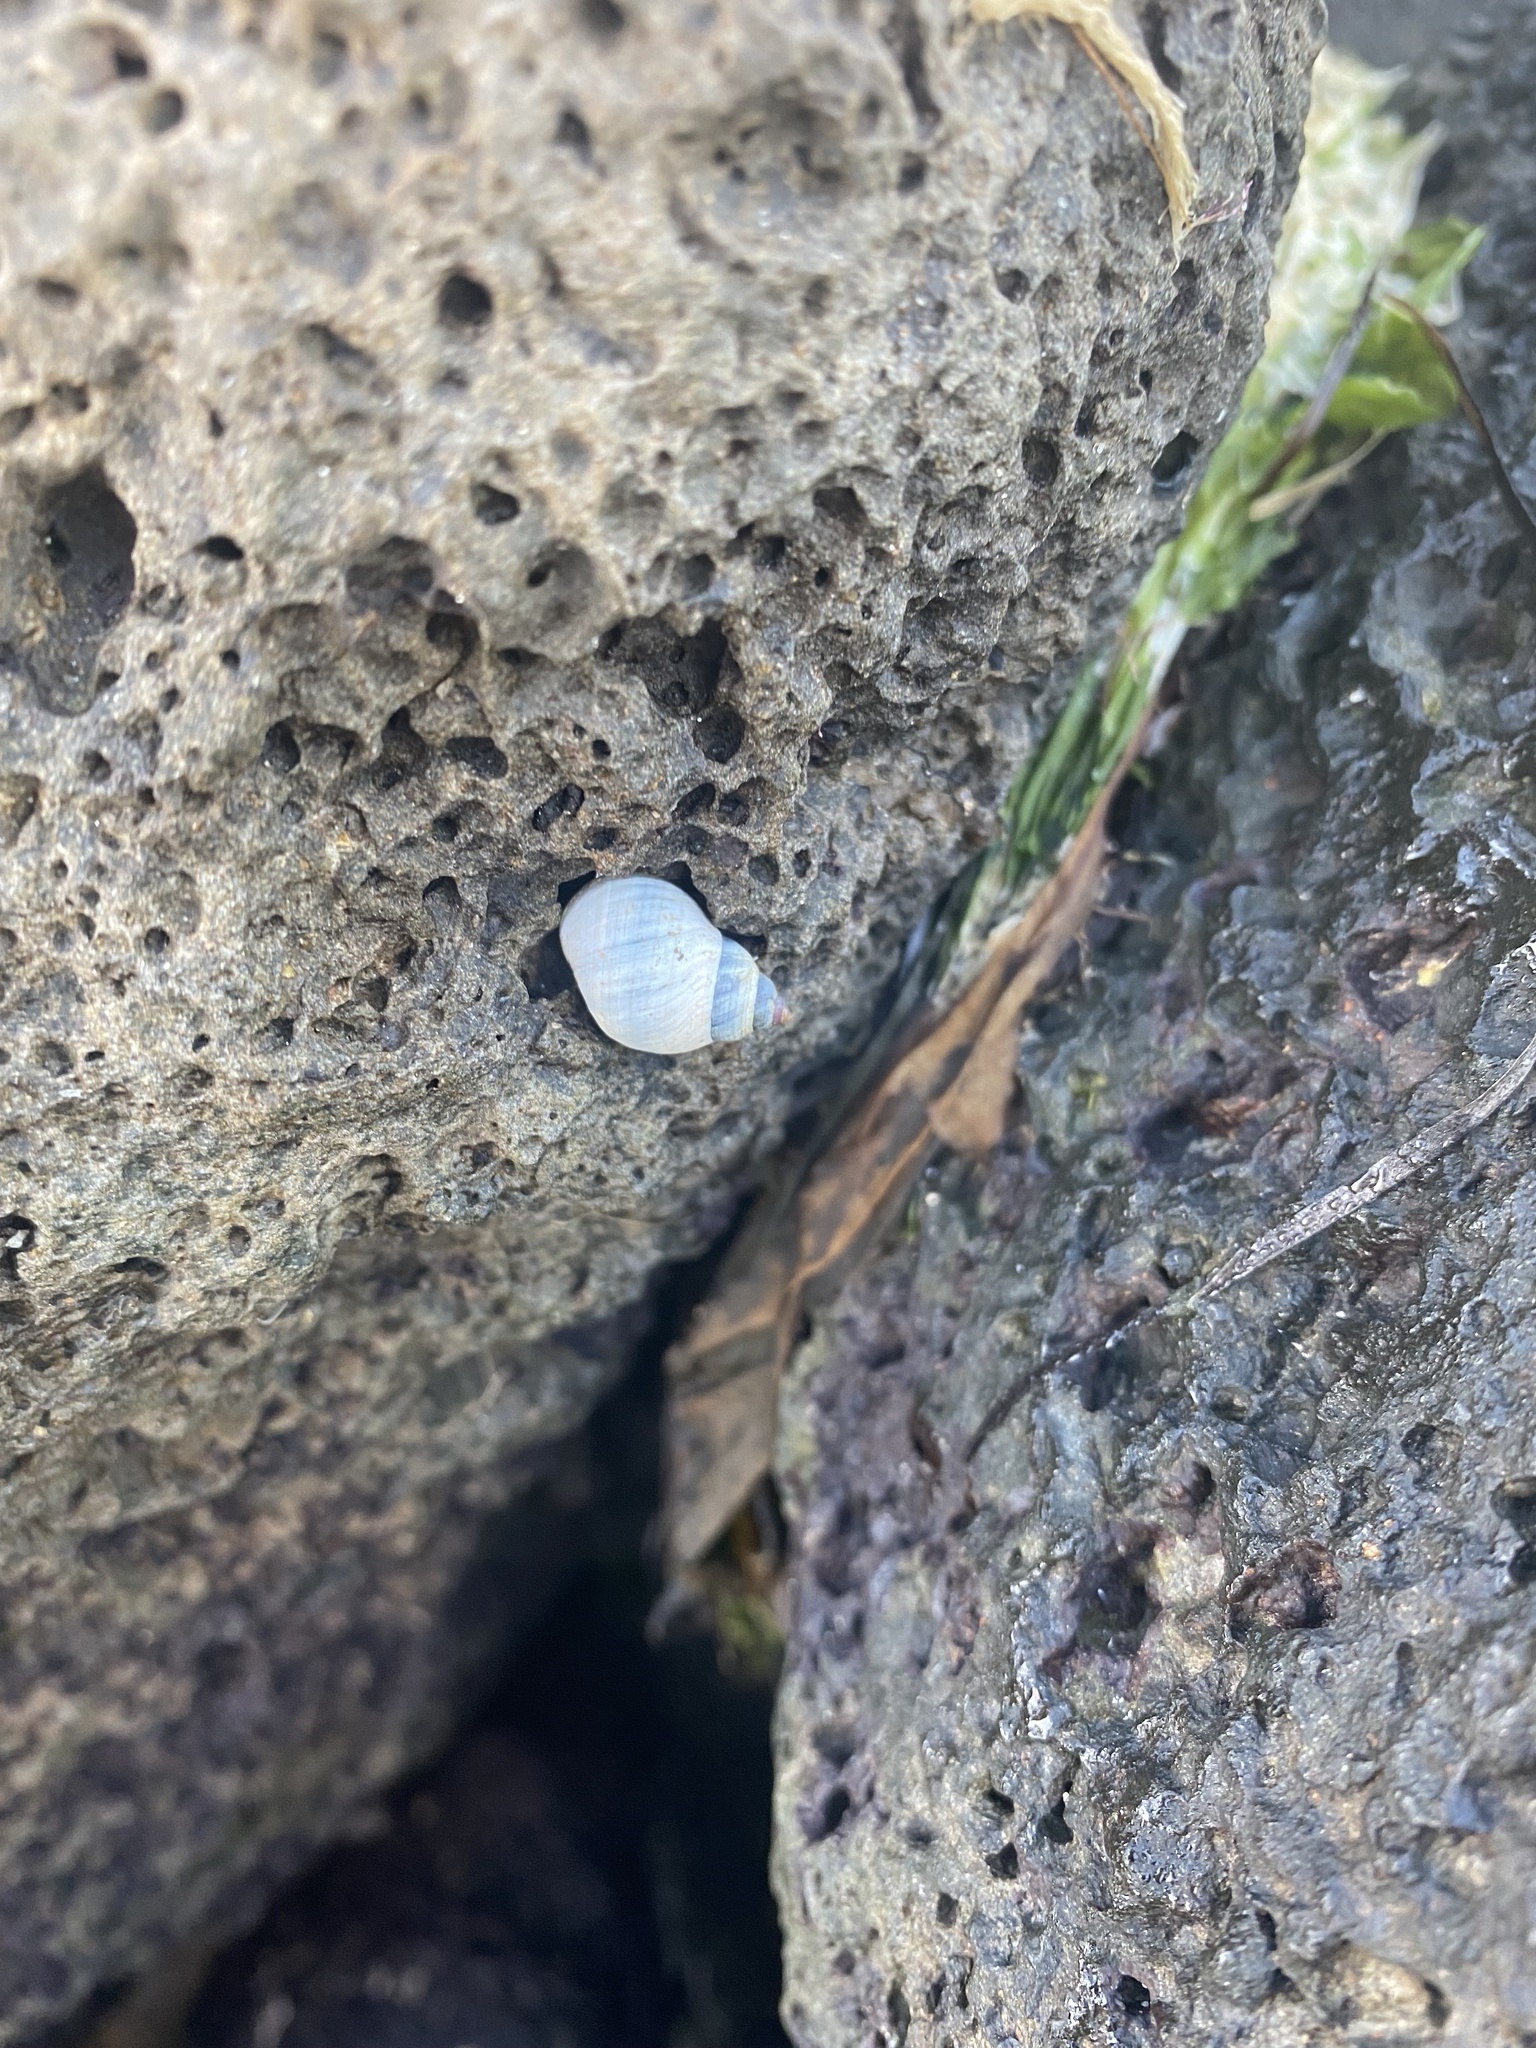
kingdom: Animalia
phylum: Mollusca
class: Gastropoda
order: Littorinimorpha
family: Littorinidae
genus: Austrolittorina
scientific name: Austrolittorina unifasciata
